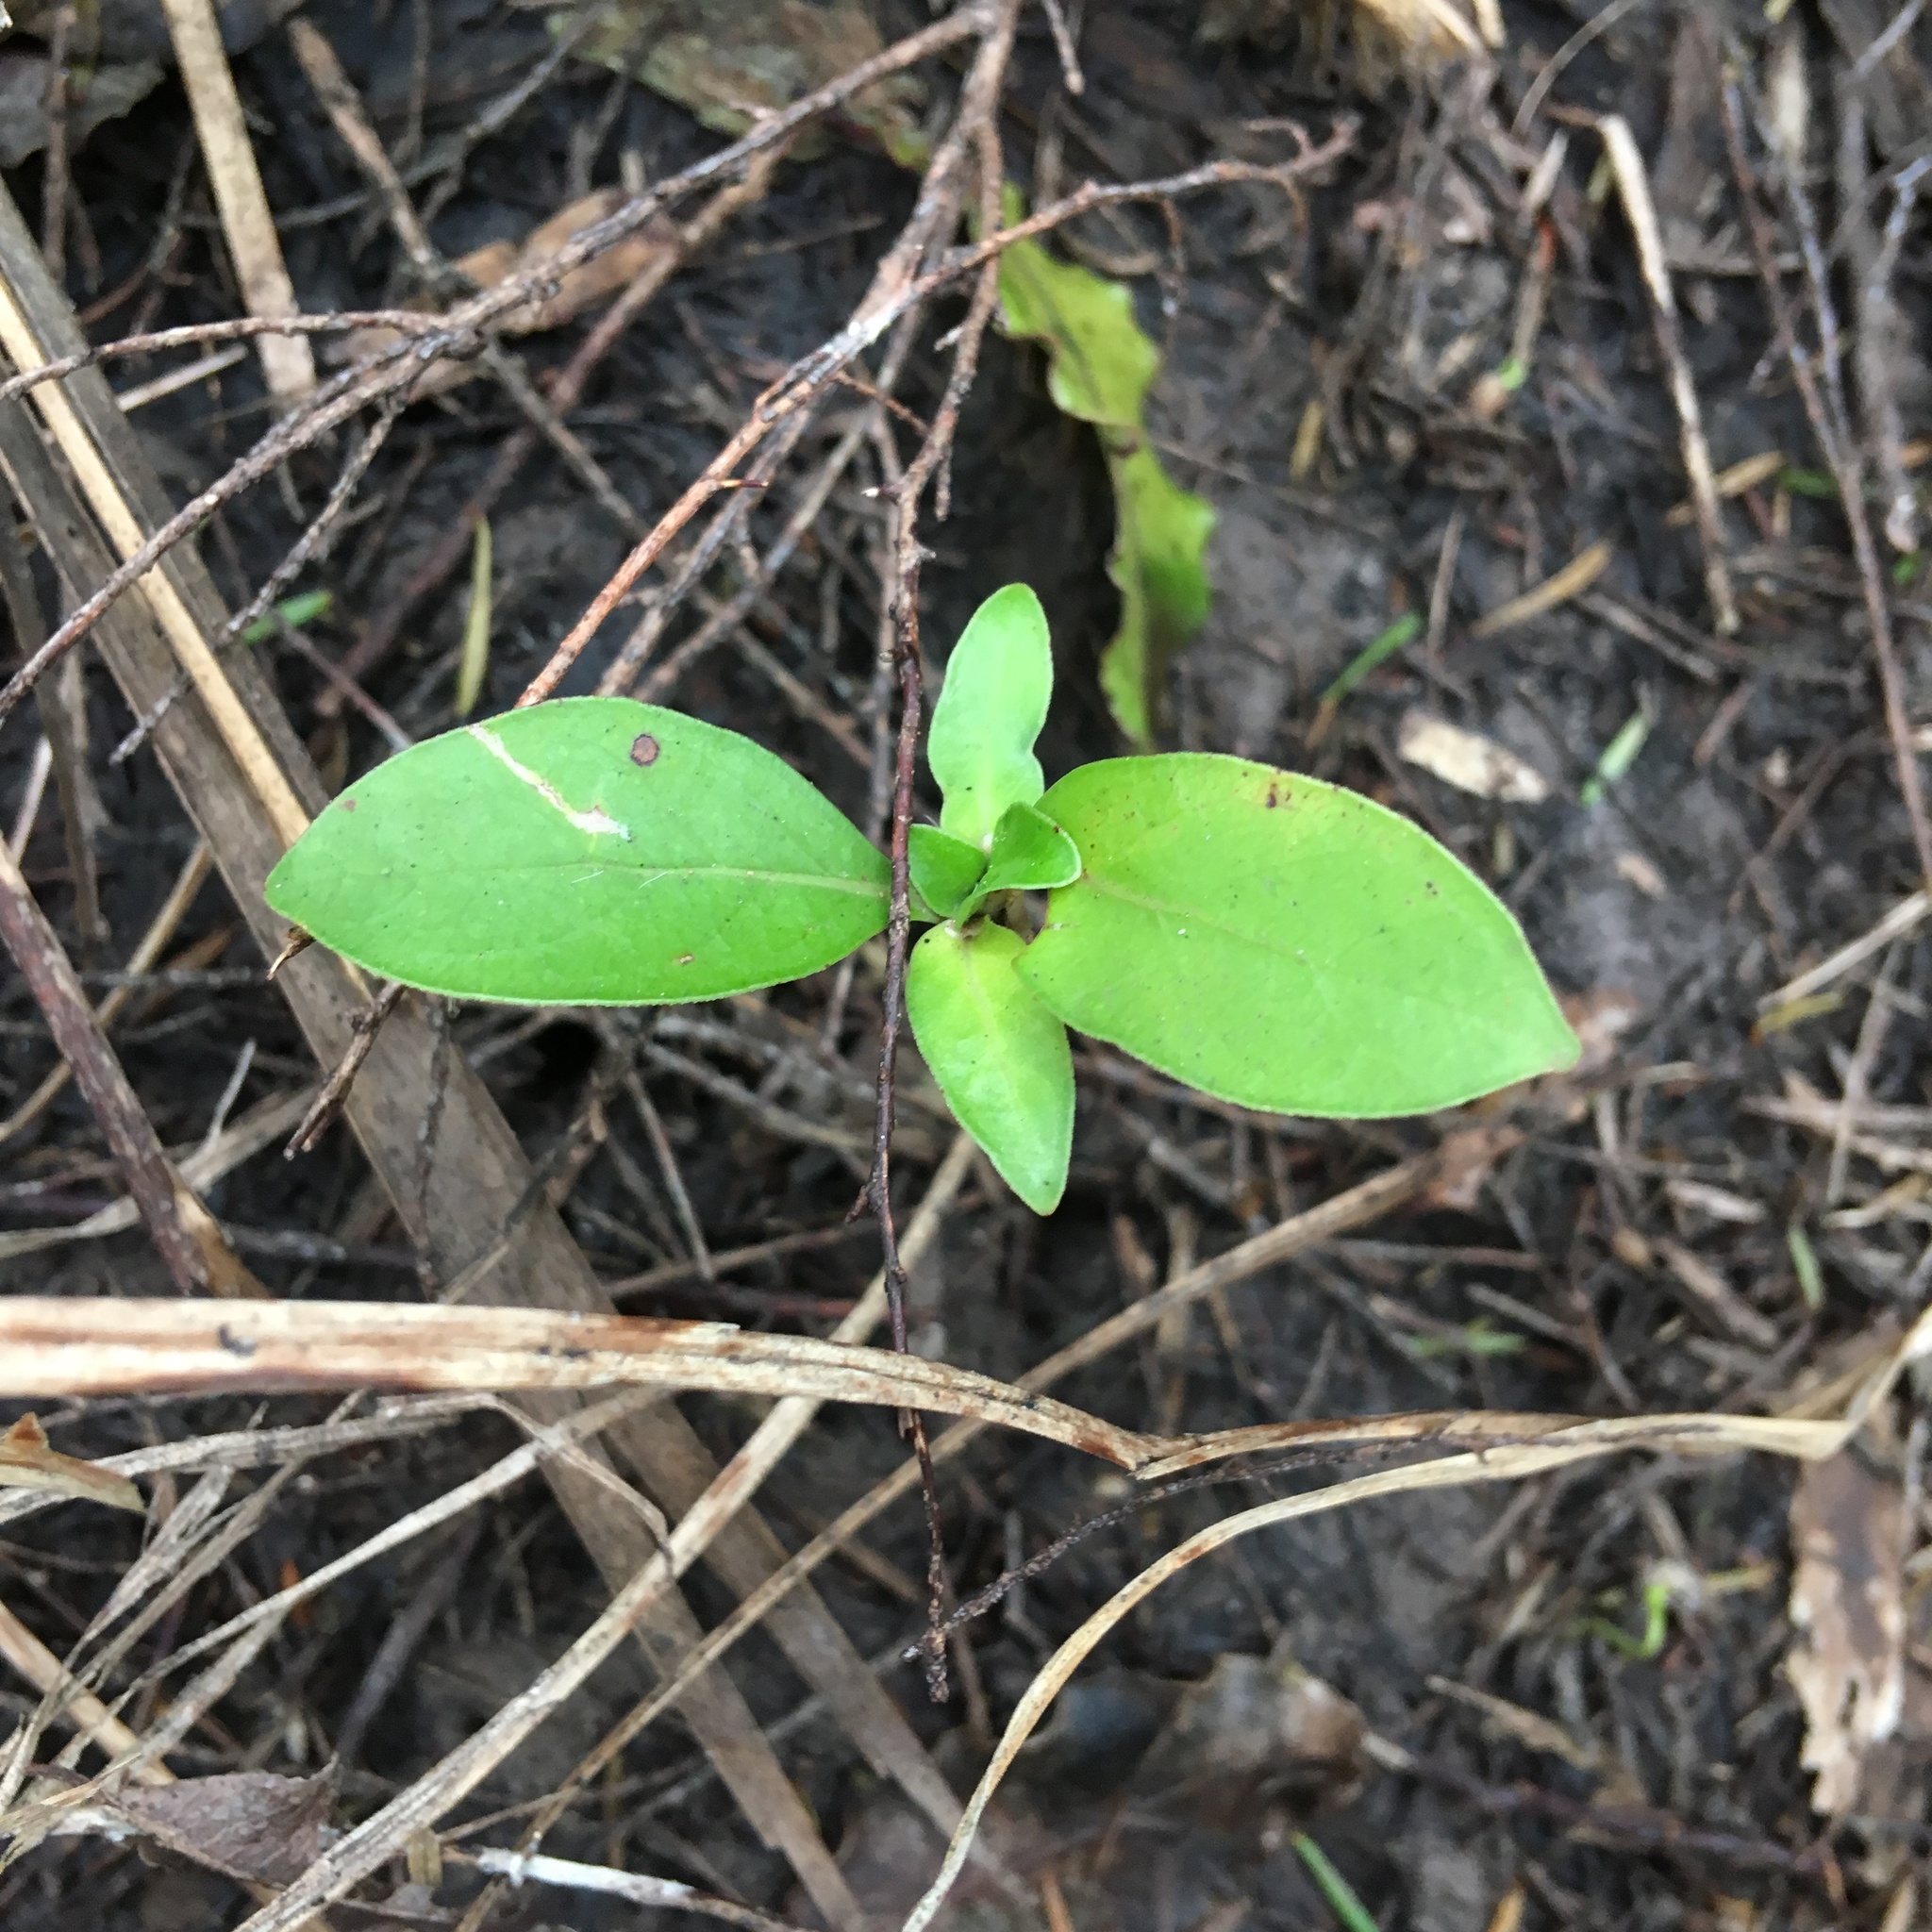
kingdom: Plantae
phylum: Tracheophyta
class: Magnoliopsida
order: Gentianales
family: Rubiaceae
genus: Coprosma
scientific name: Coprosma robusta
